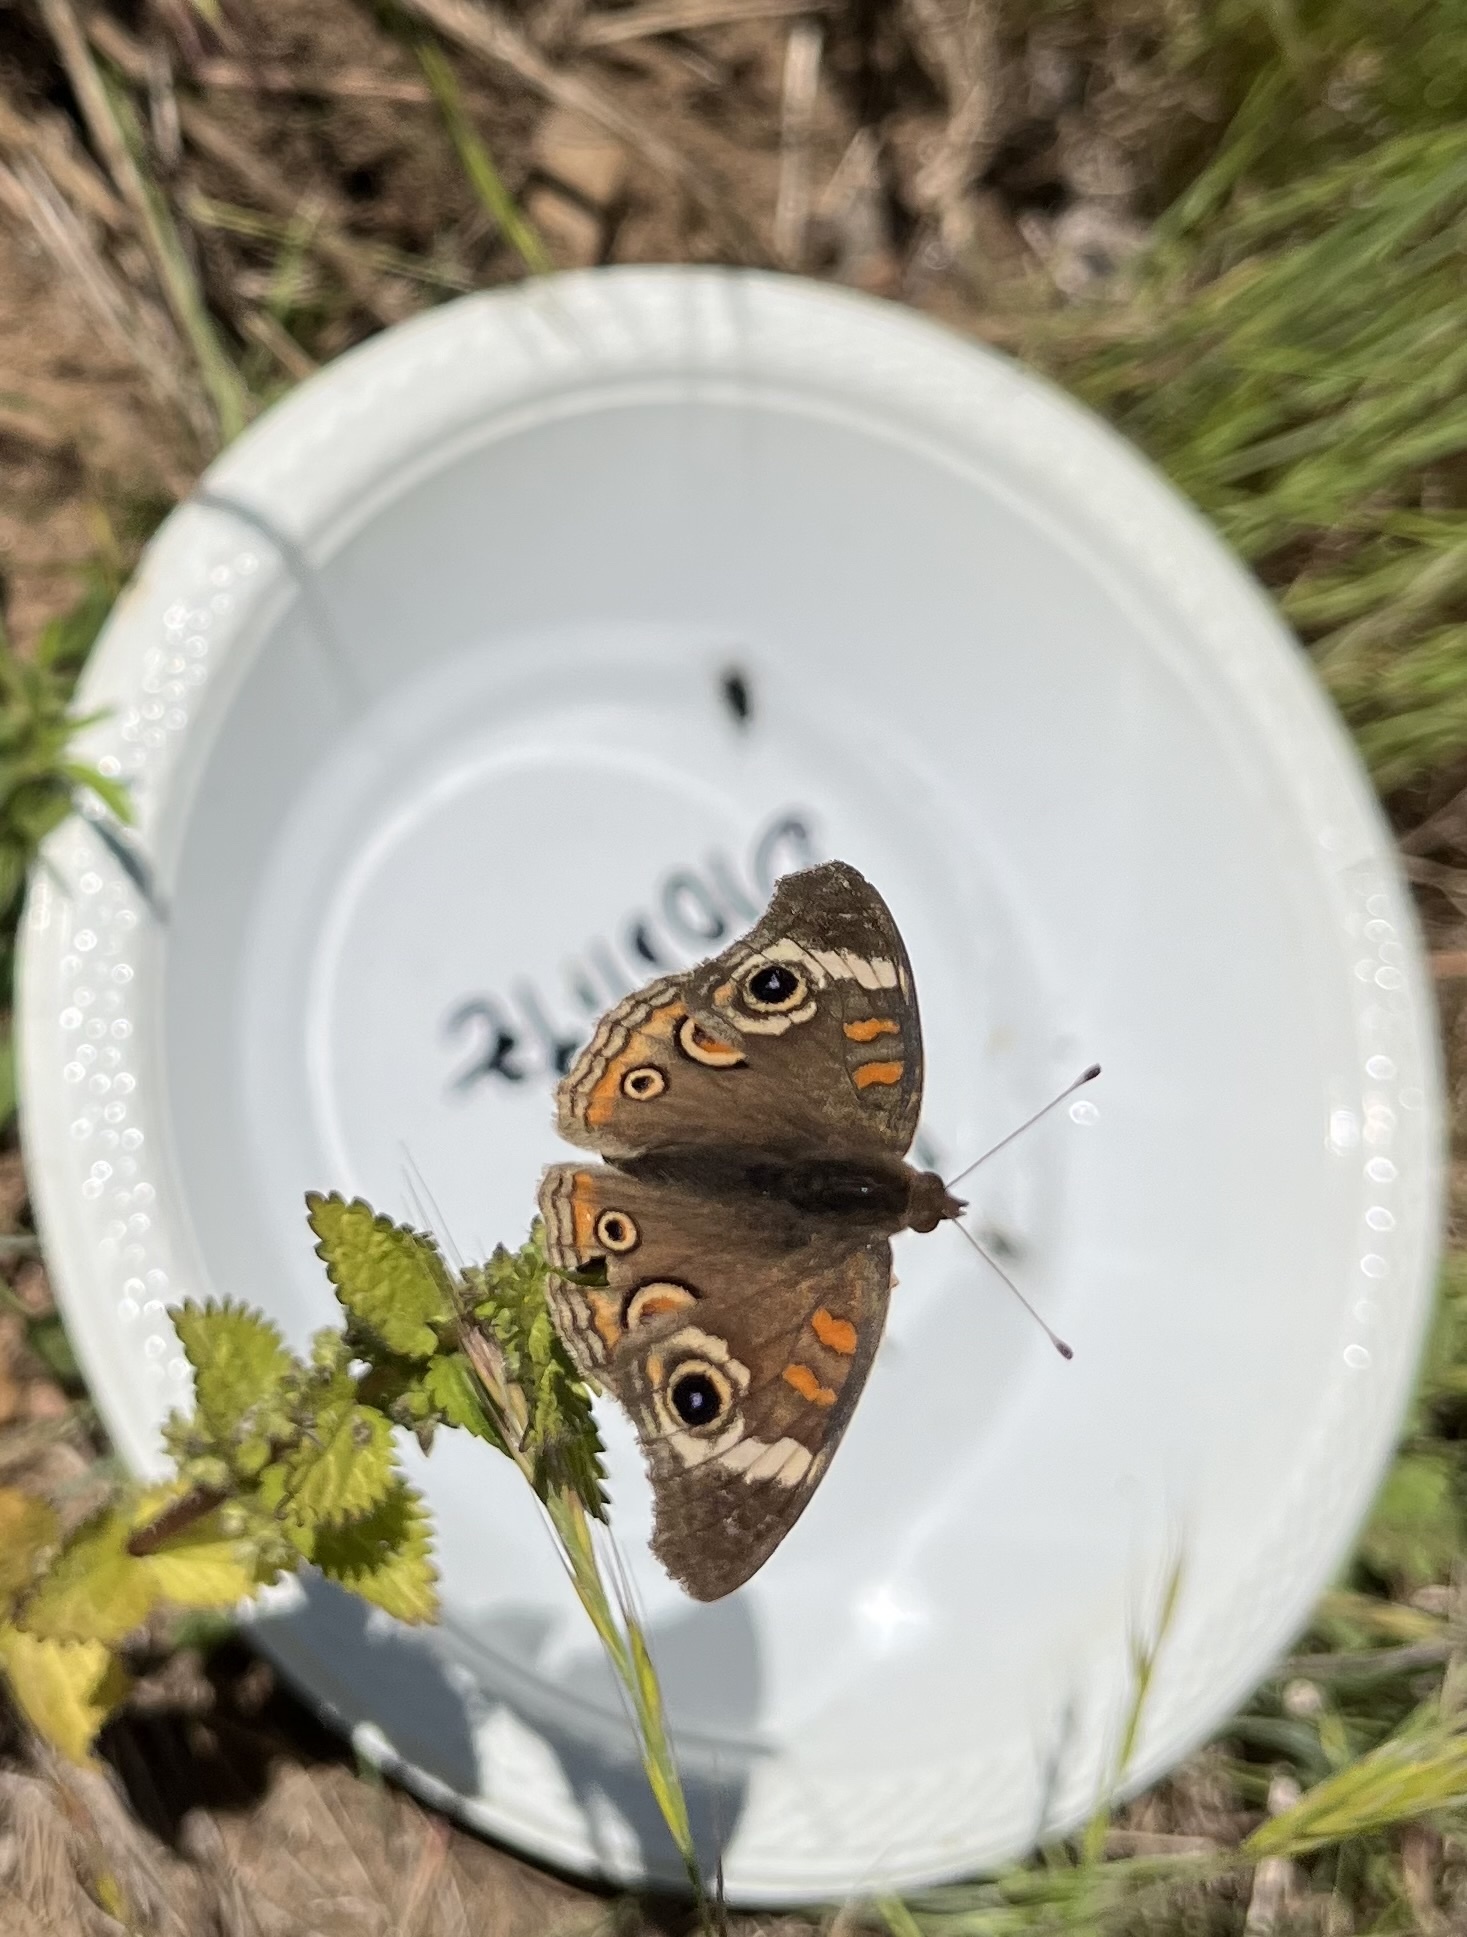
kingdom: Animalia
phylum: Arthropoda
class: Insecta
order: Lepidoptera
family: Nymphalidae
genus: Junonia
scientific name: Junonia grisea
